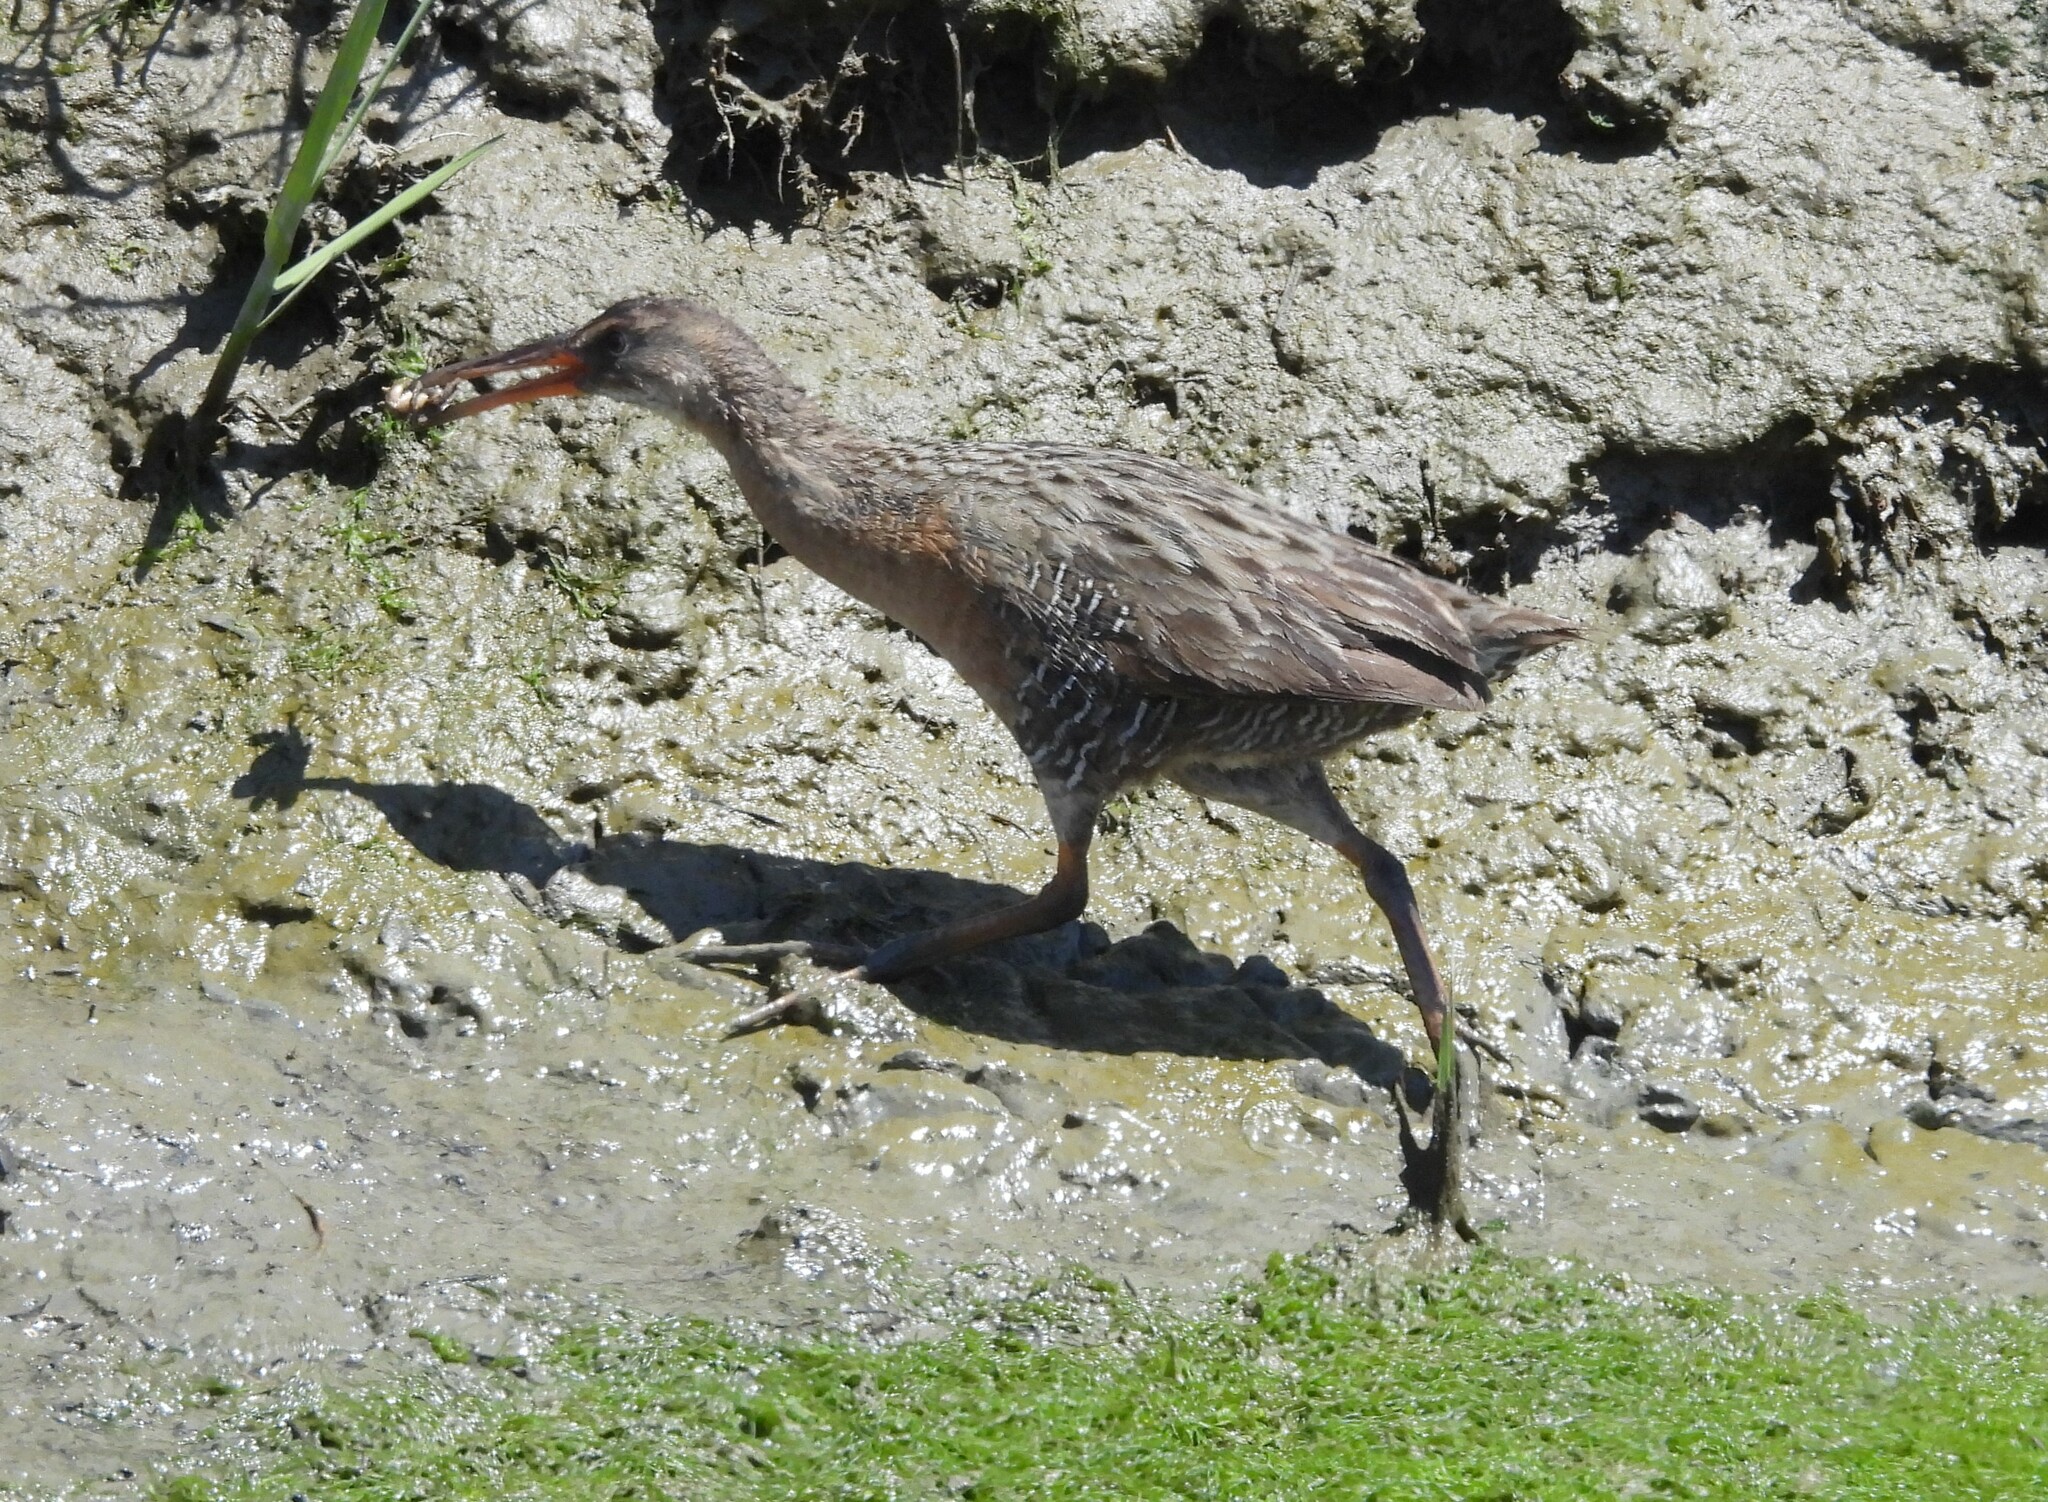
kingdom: Animalia
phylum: Chordata
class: Aves
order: Gruiformes
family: Rallidae
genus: Rallus
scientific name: Rallus obsoletus
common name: Ridgway's rail
